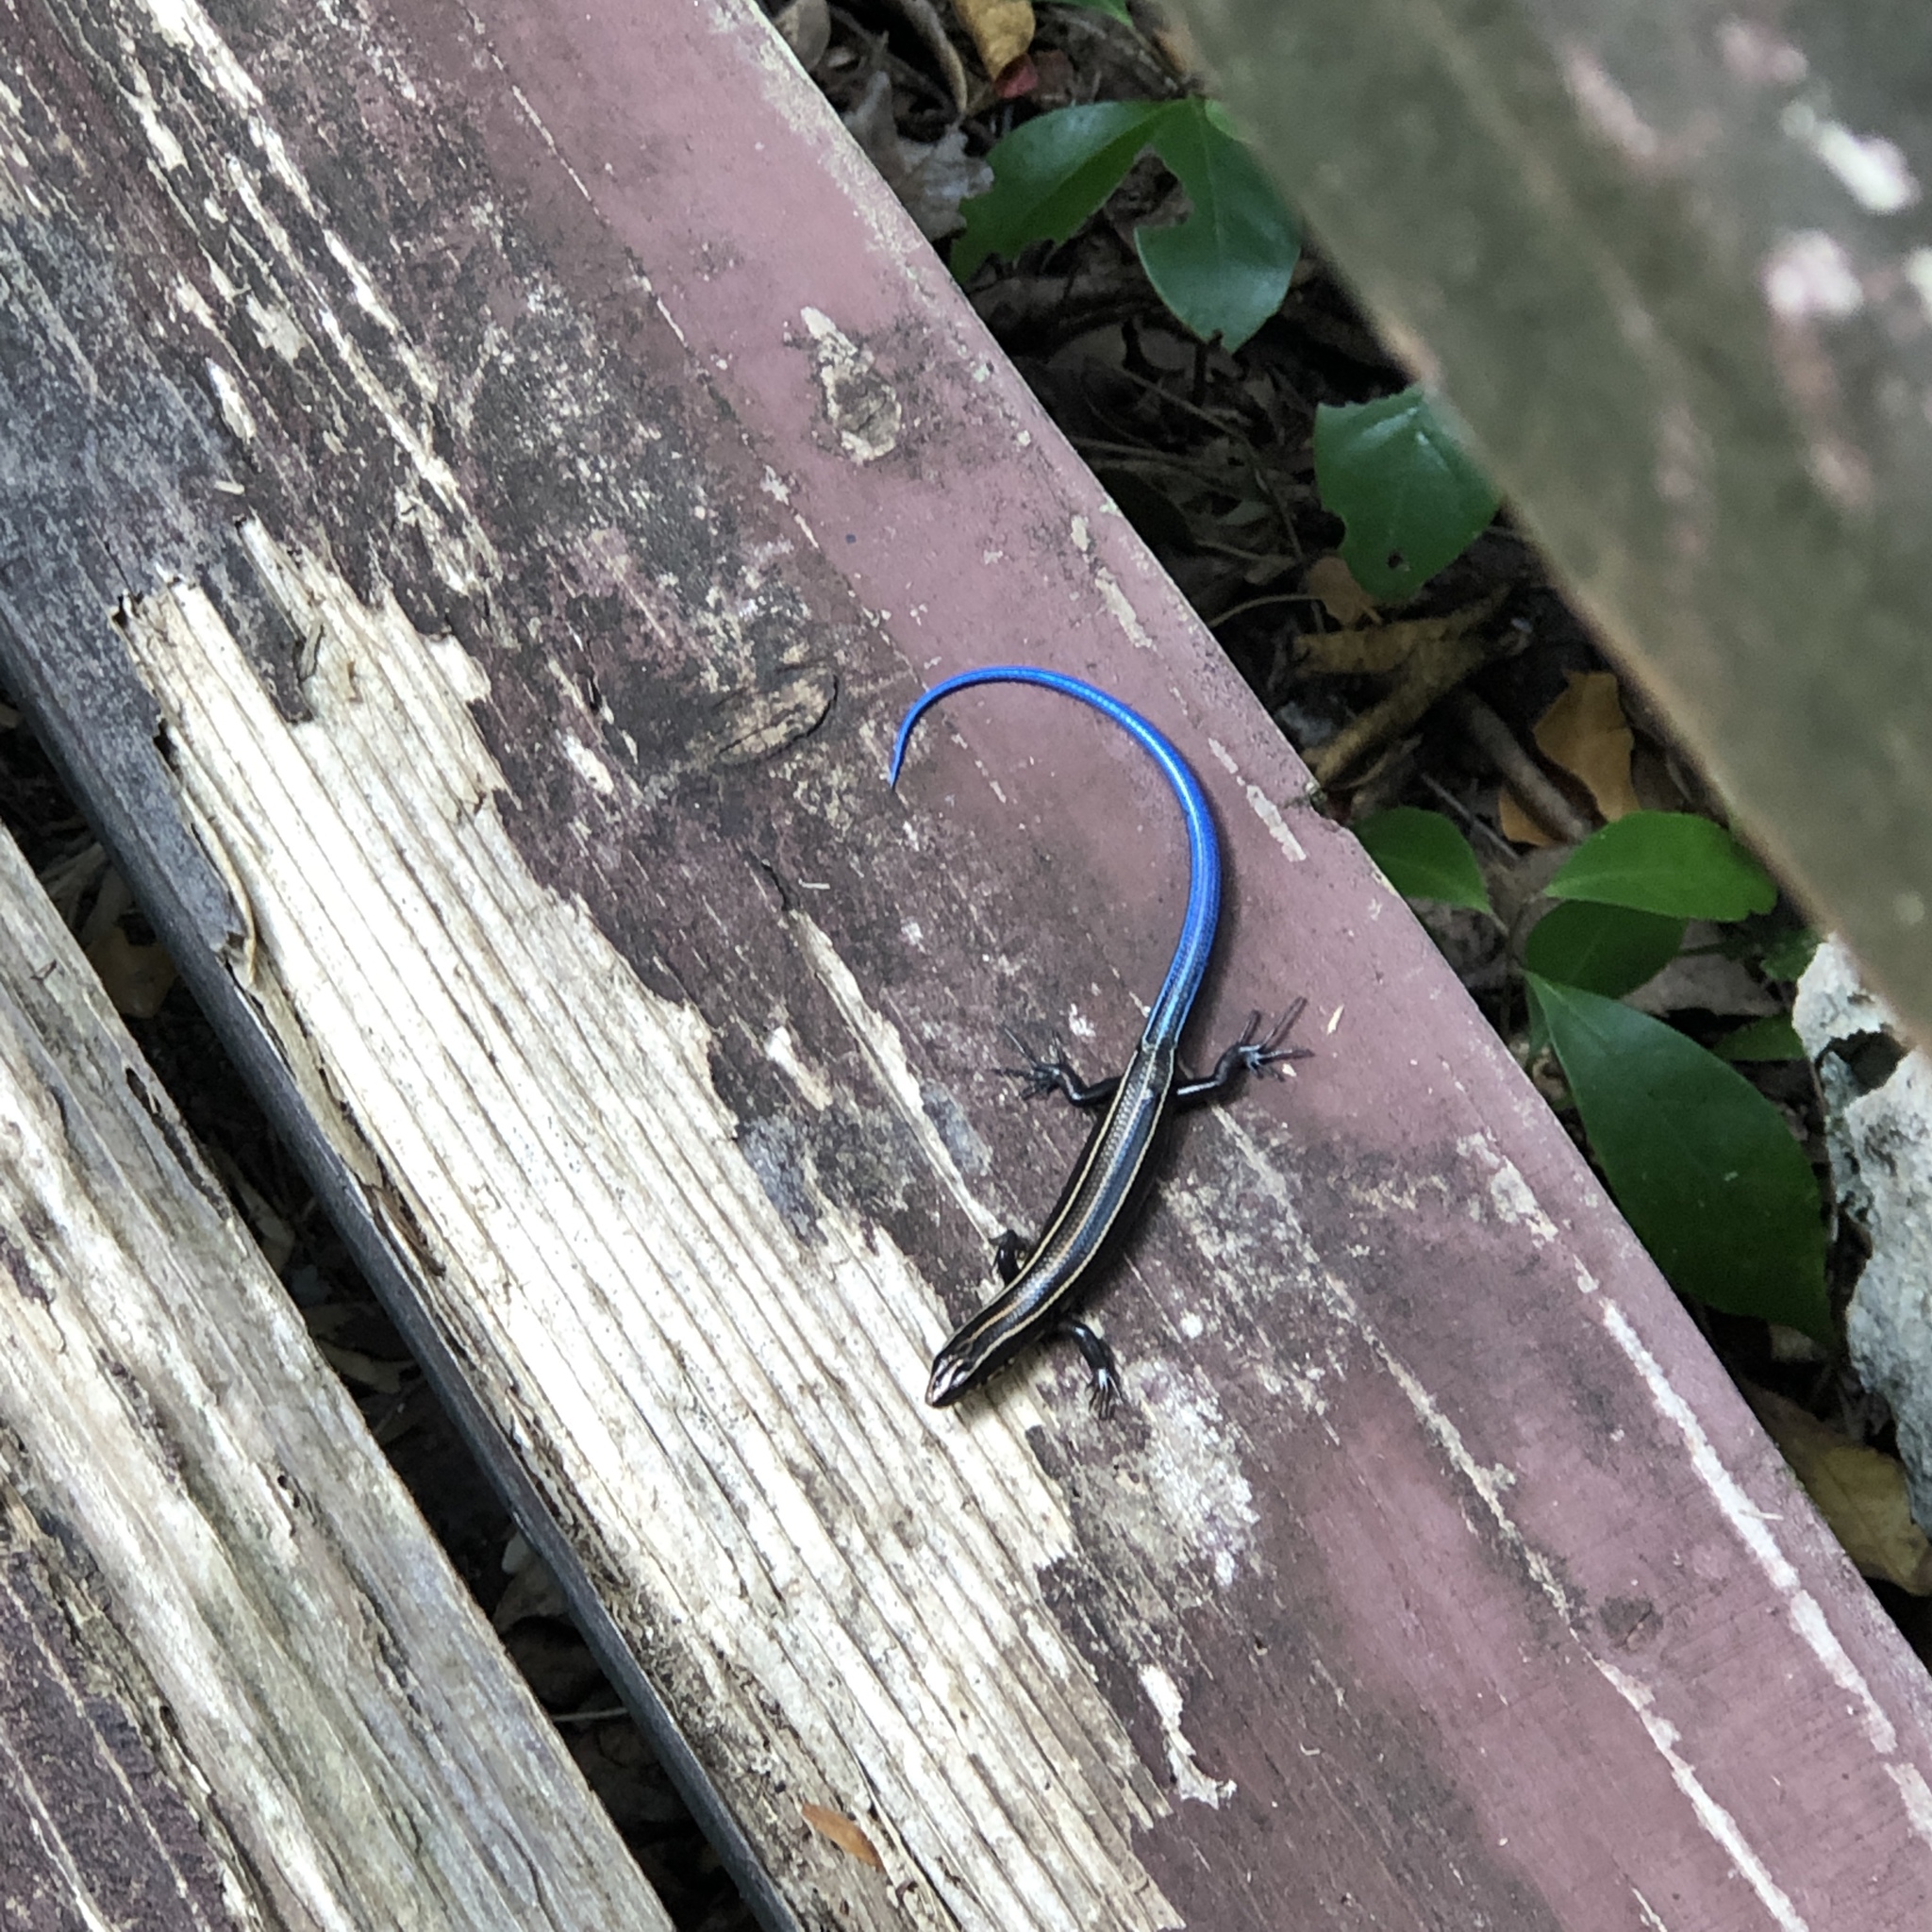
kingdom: Animalia
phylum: Chordata
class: Squamata
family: Scincidae
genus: Plestiodon
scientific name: Plestiodon barbouri
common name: Barbour's eyelid skink
